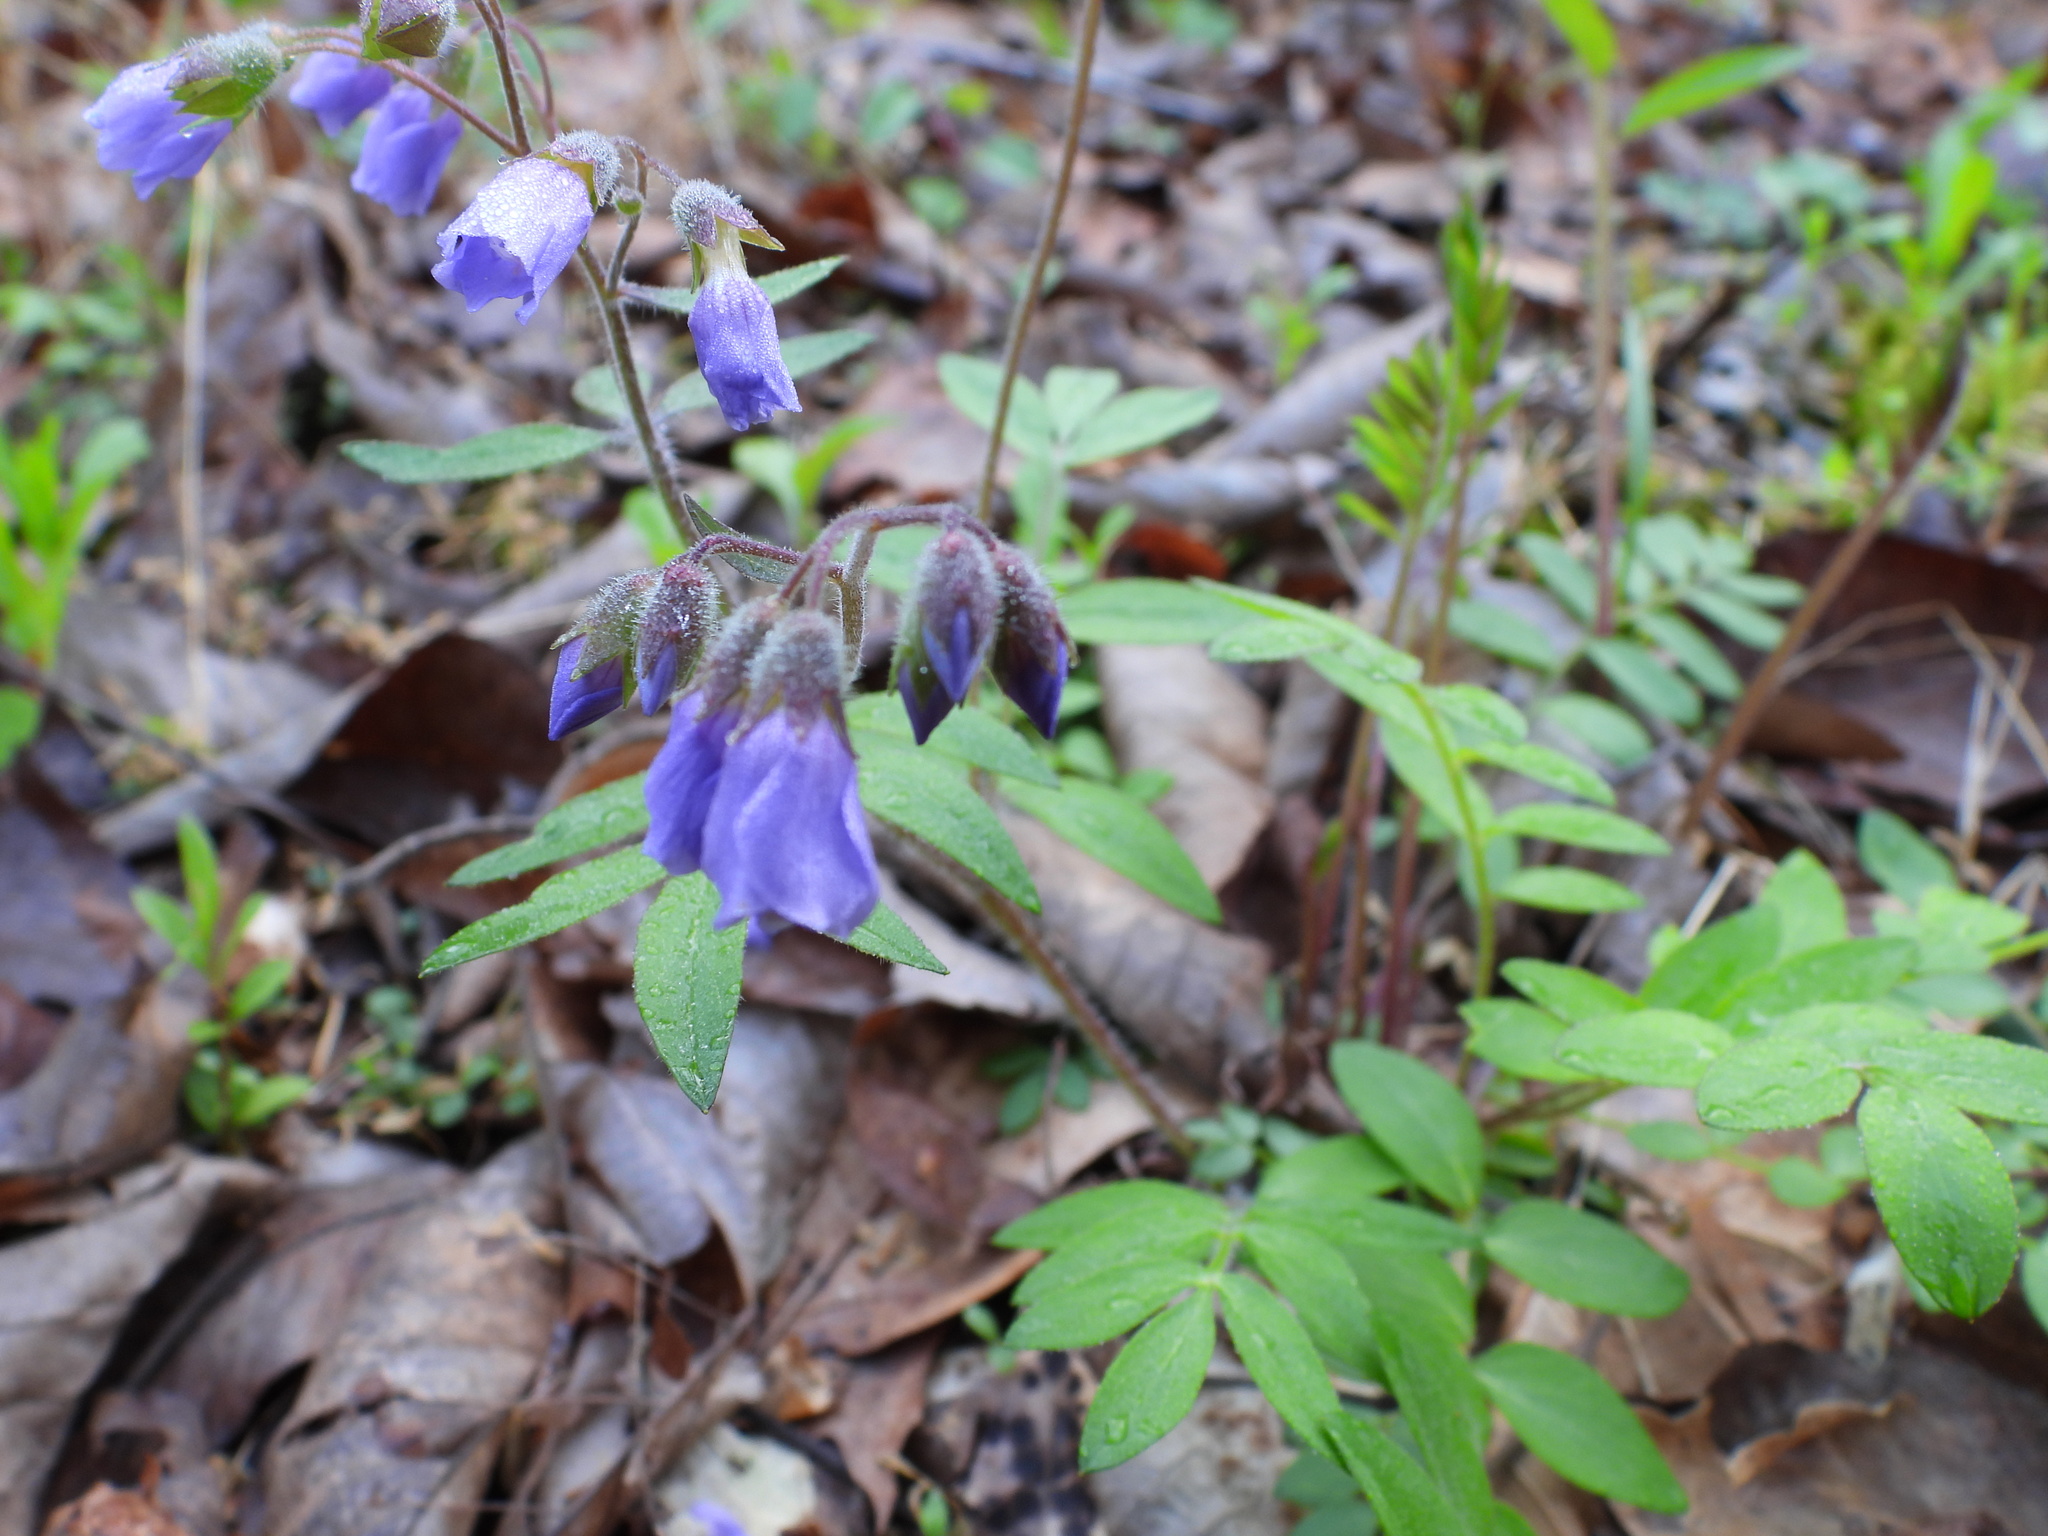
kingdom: Plantae
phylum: Tracheophyta
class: Magnoliopsida
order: Ericales
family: Polemoniaceae
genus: Polemonium
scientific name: Polemonium reptans
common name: Creeping jacob's-ladder
